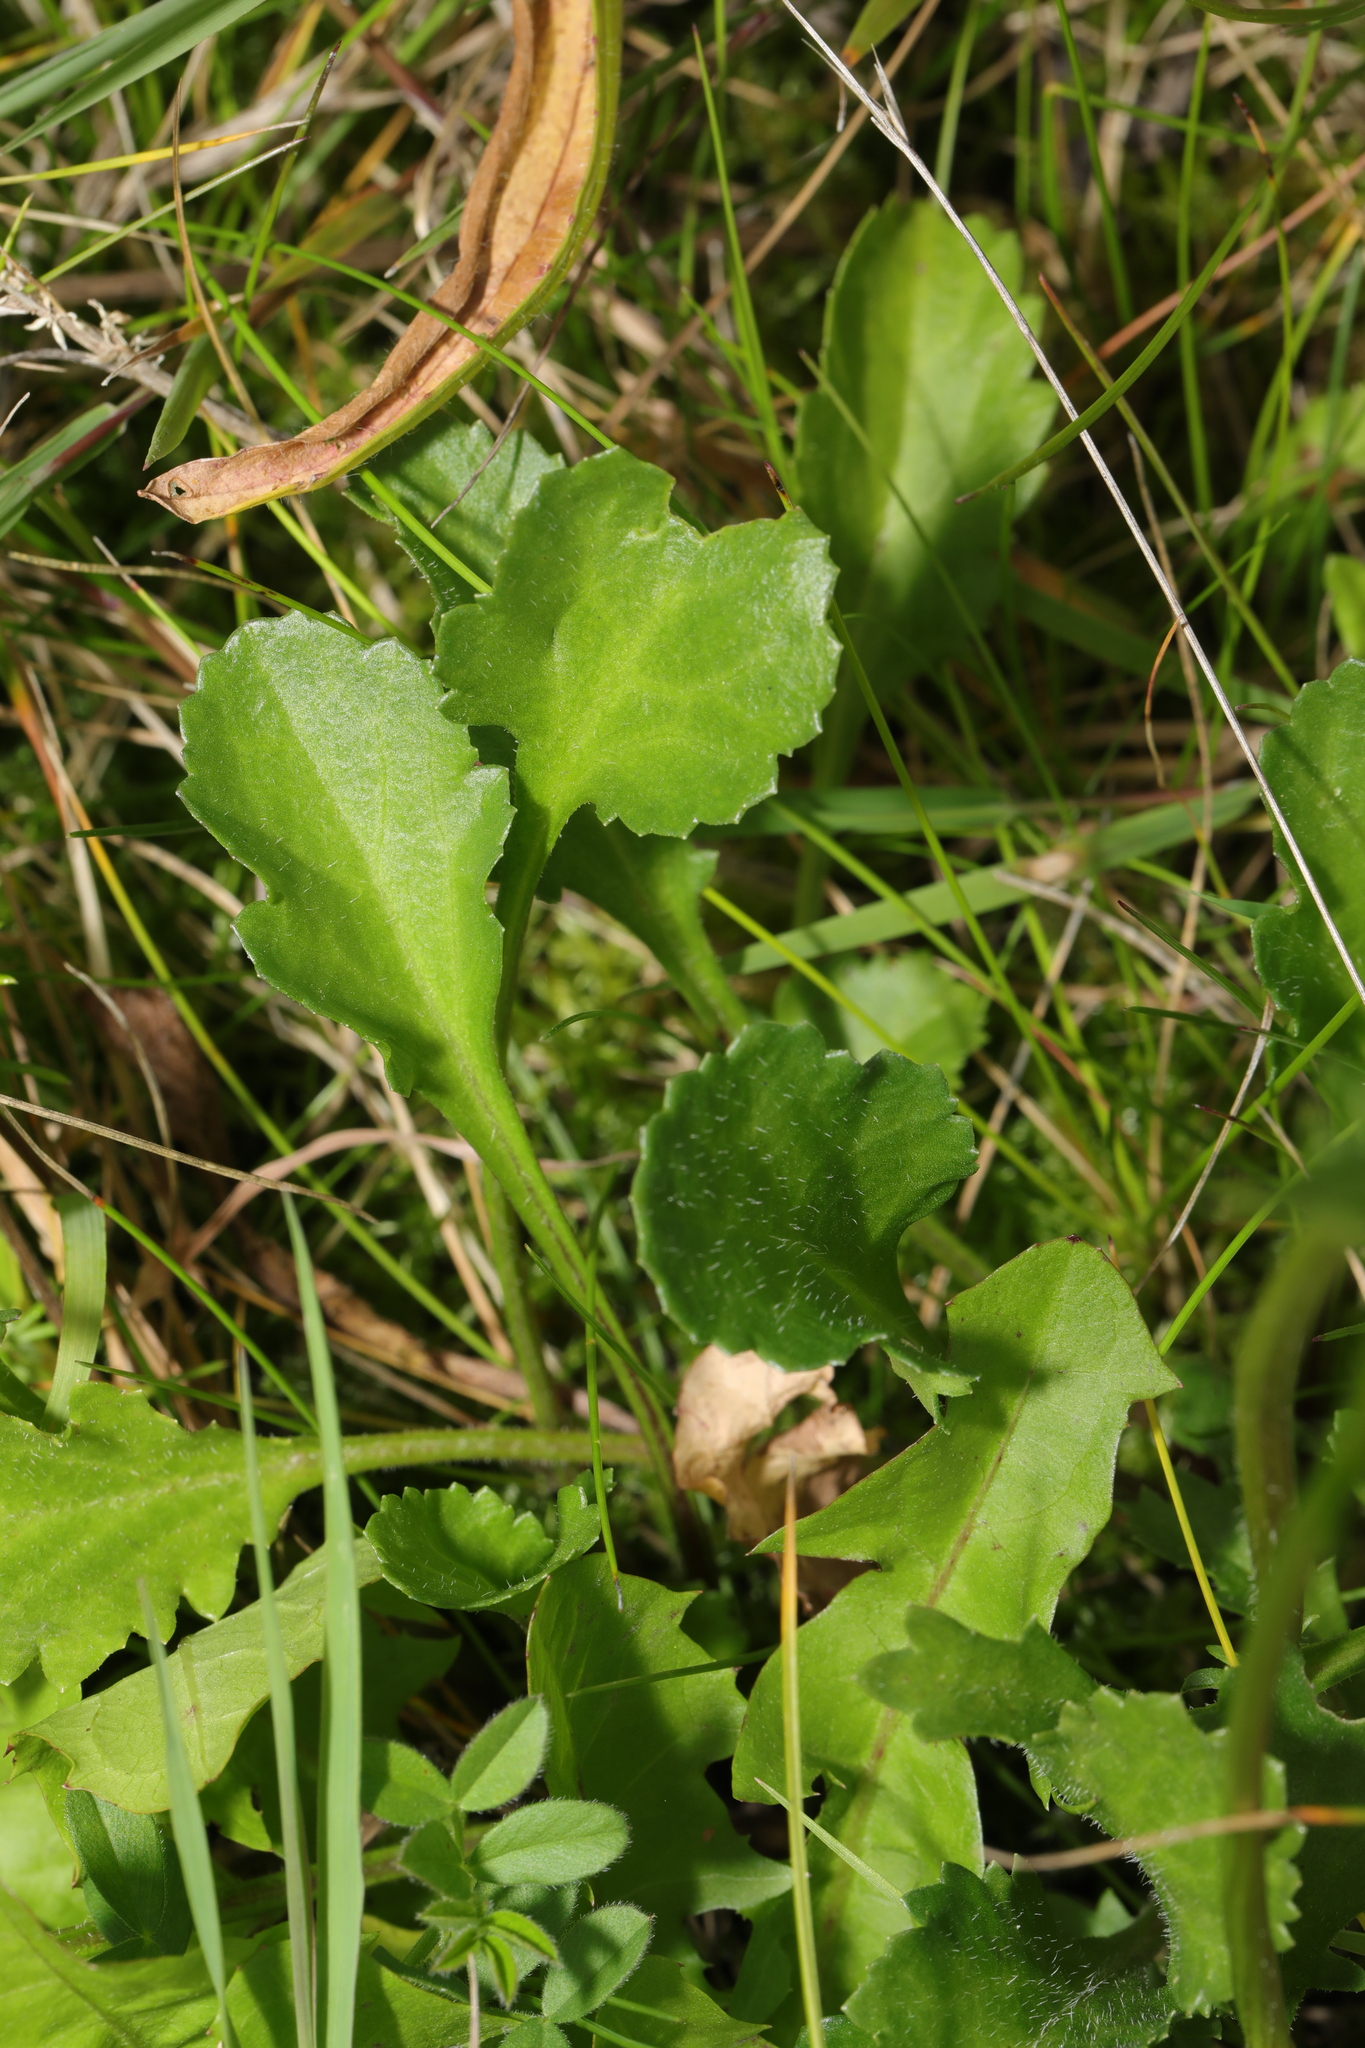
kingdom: Plantae
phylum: Tracheophyta
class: Magnoliopsida
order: Asterales
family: Asteraceae
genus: Leucanthemum
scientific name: Leucanthemum vulgare
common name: Oxeye daisy
